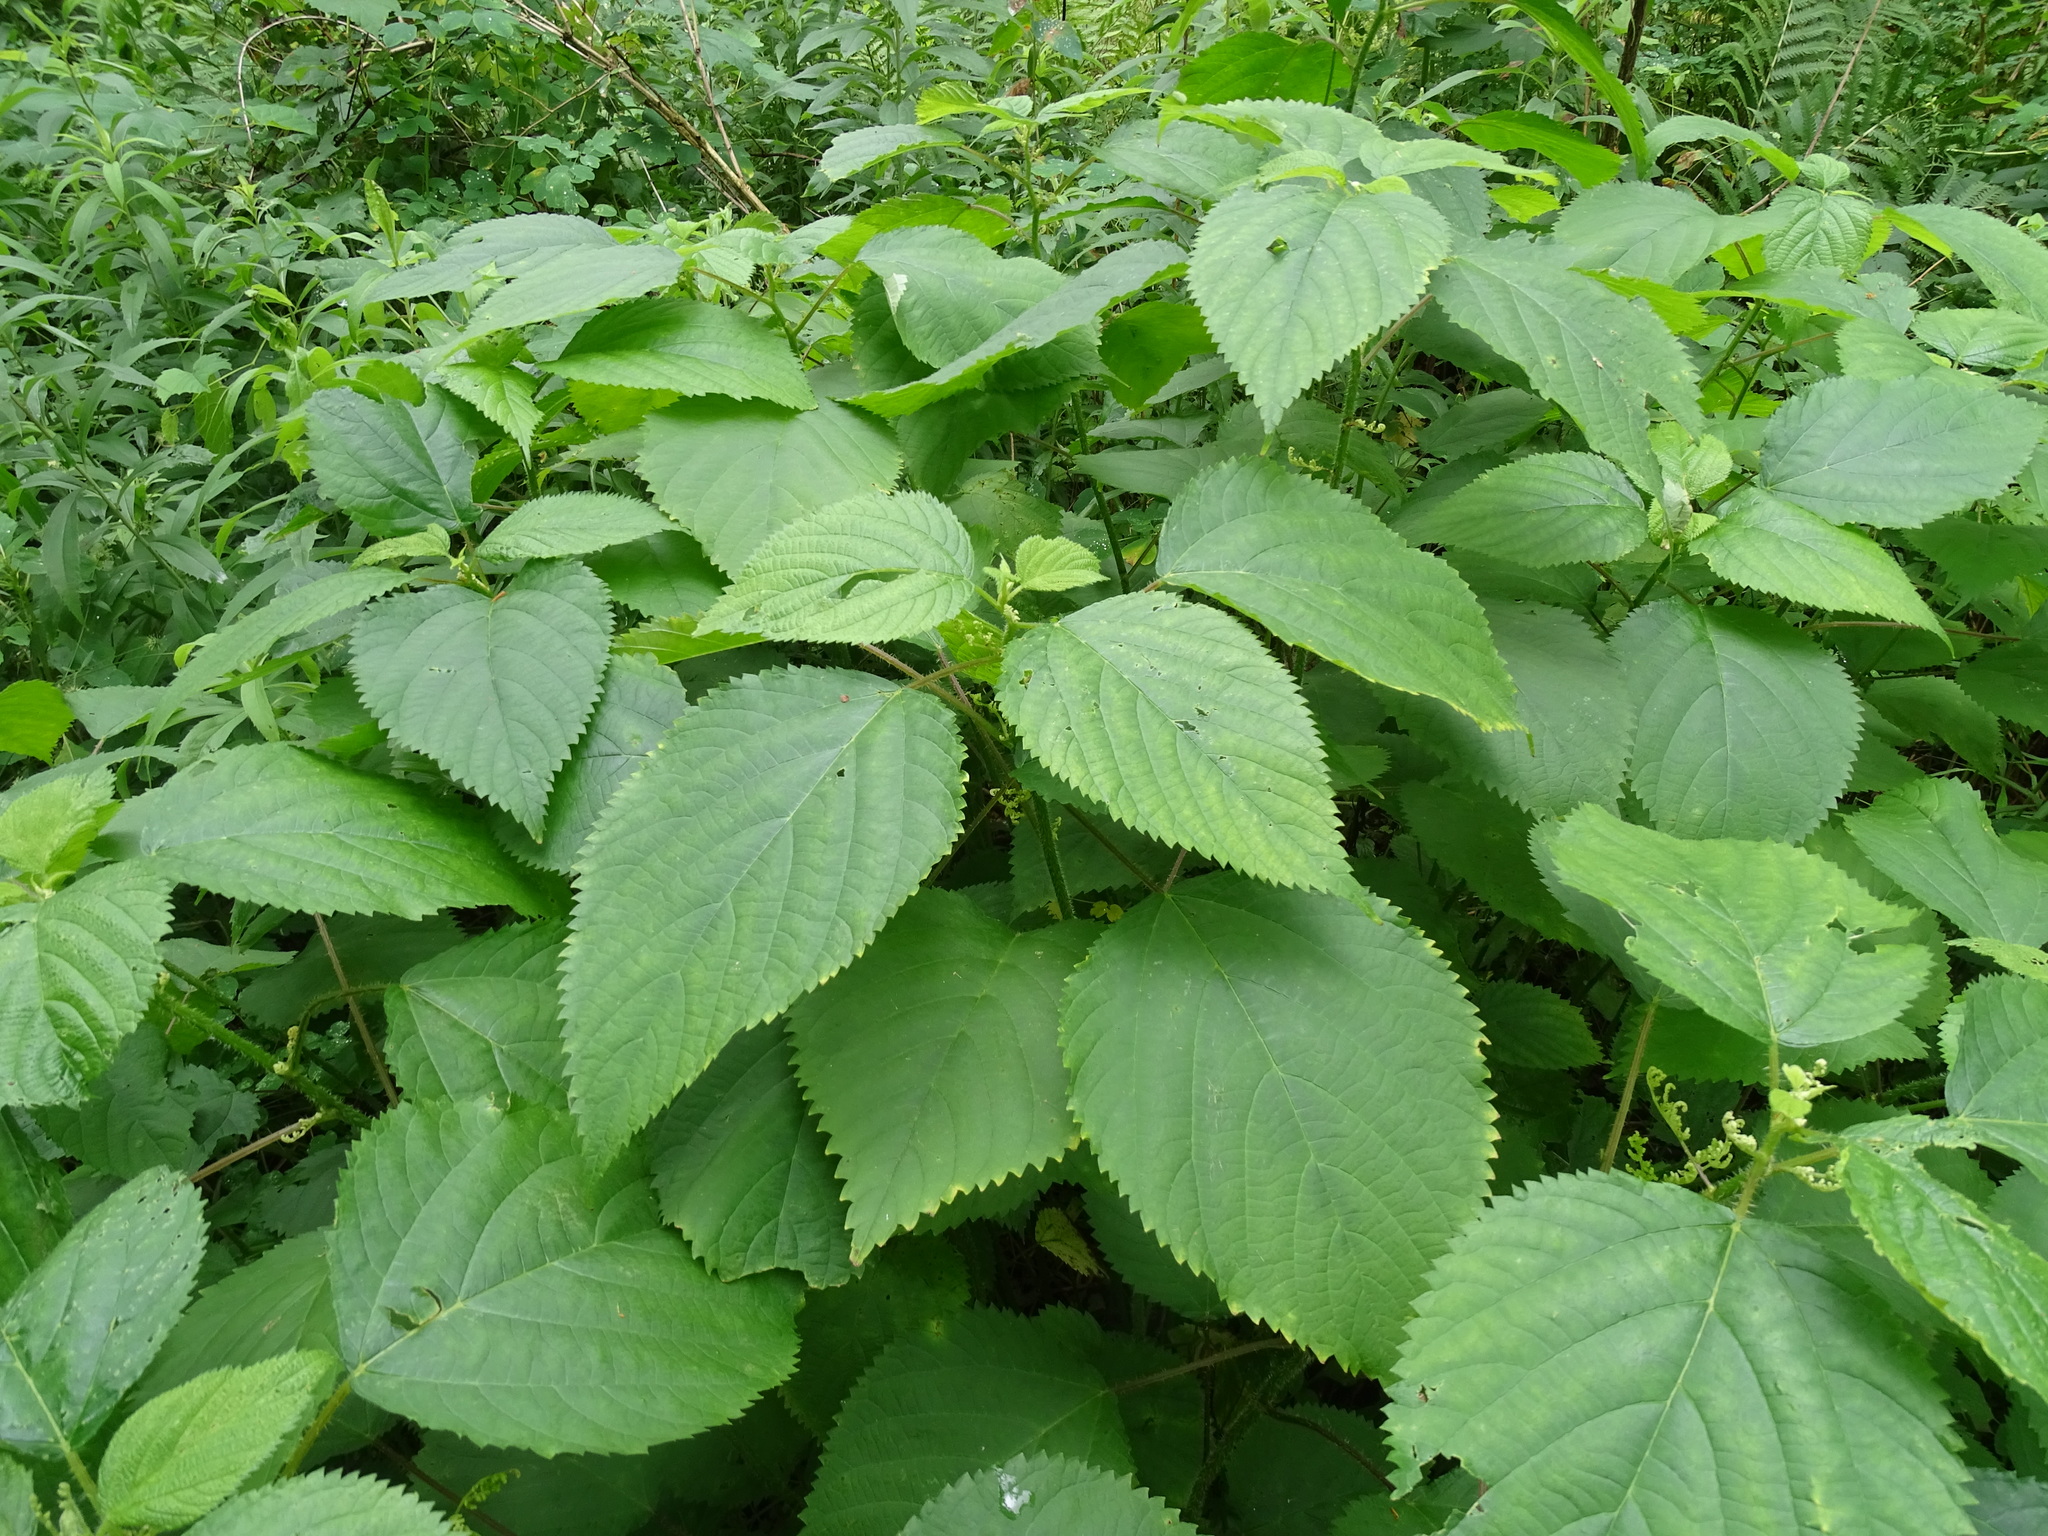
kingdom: Plantae
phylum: Tracheophyta
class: Magnoliopsida
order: Rosales
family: Urticaceae
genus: Laportea
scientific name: Laportea canadensis
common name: Canada nettle
